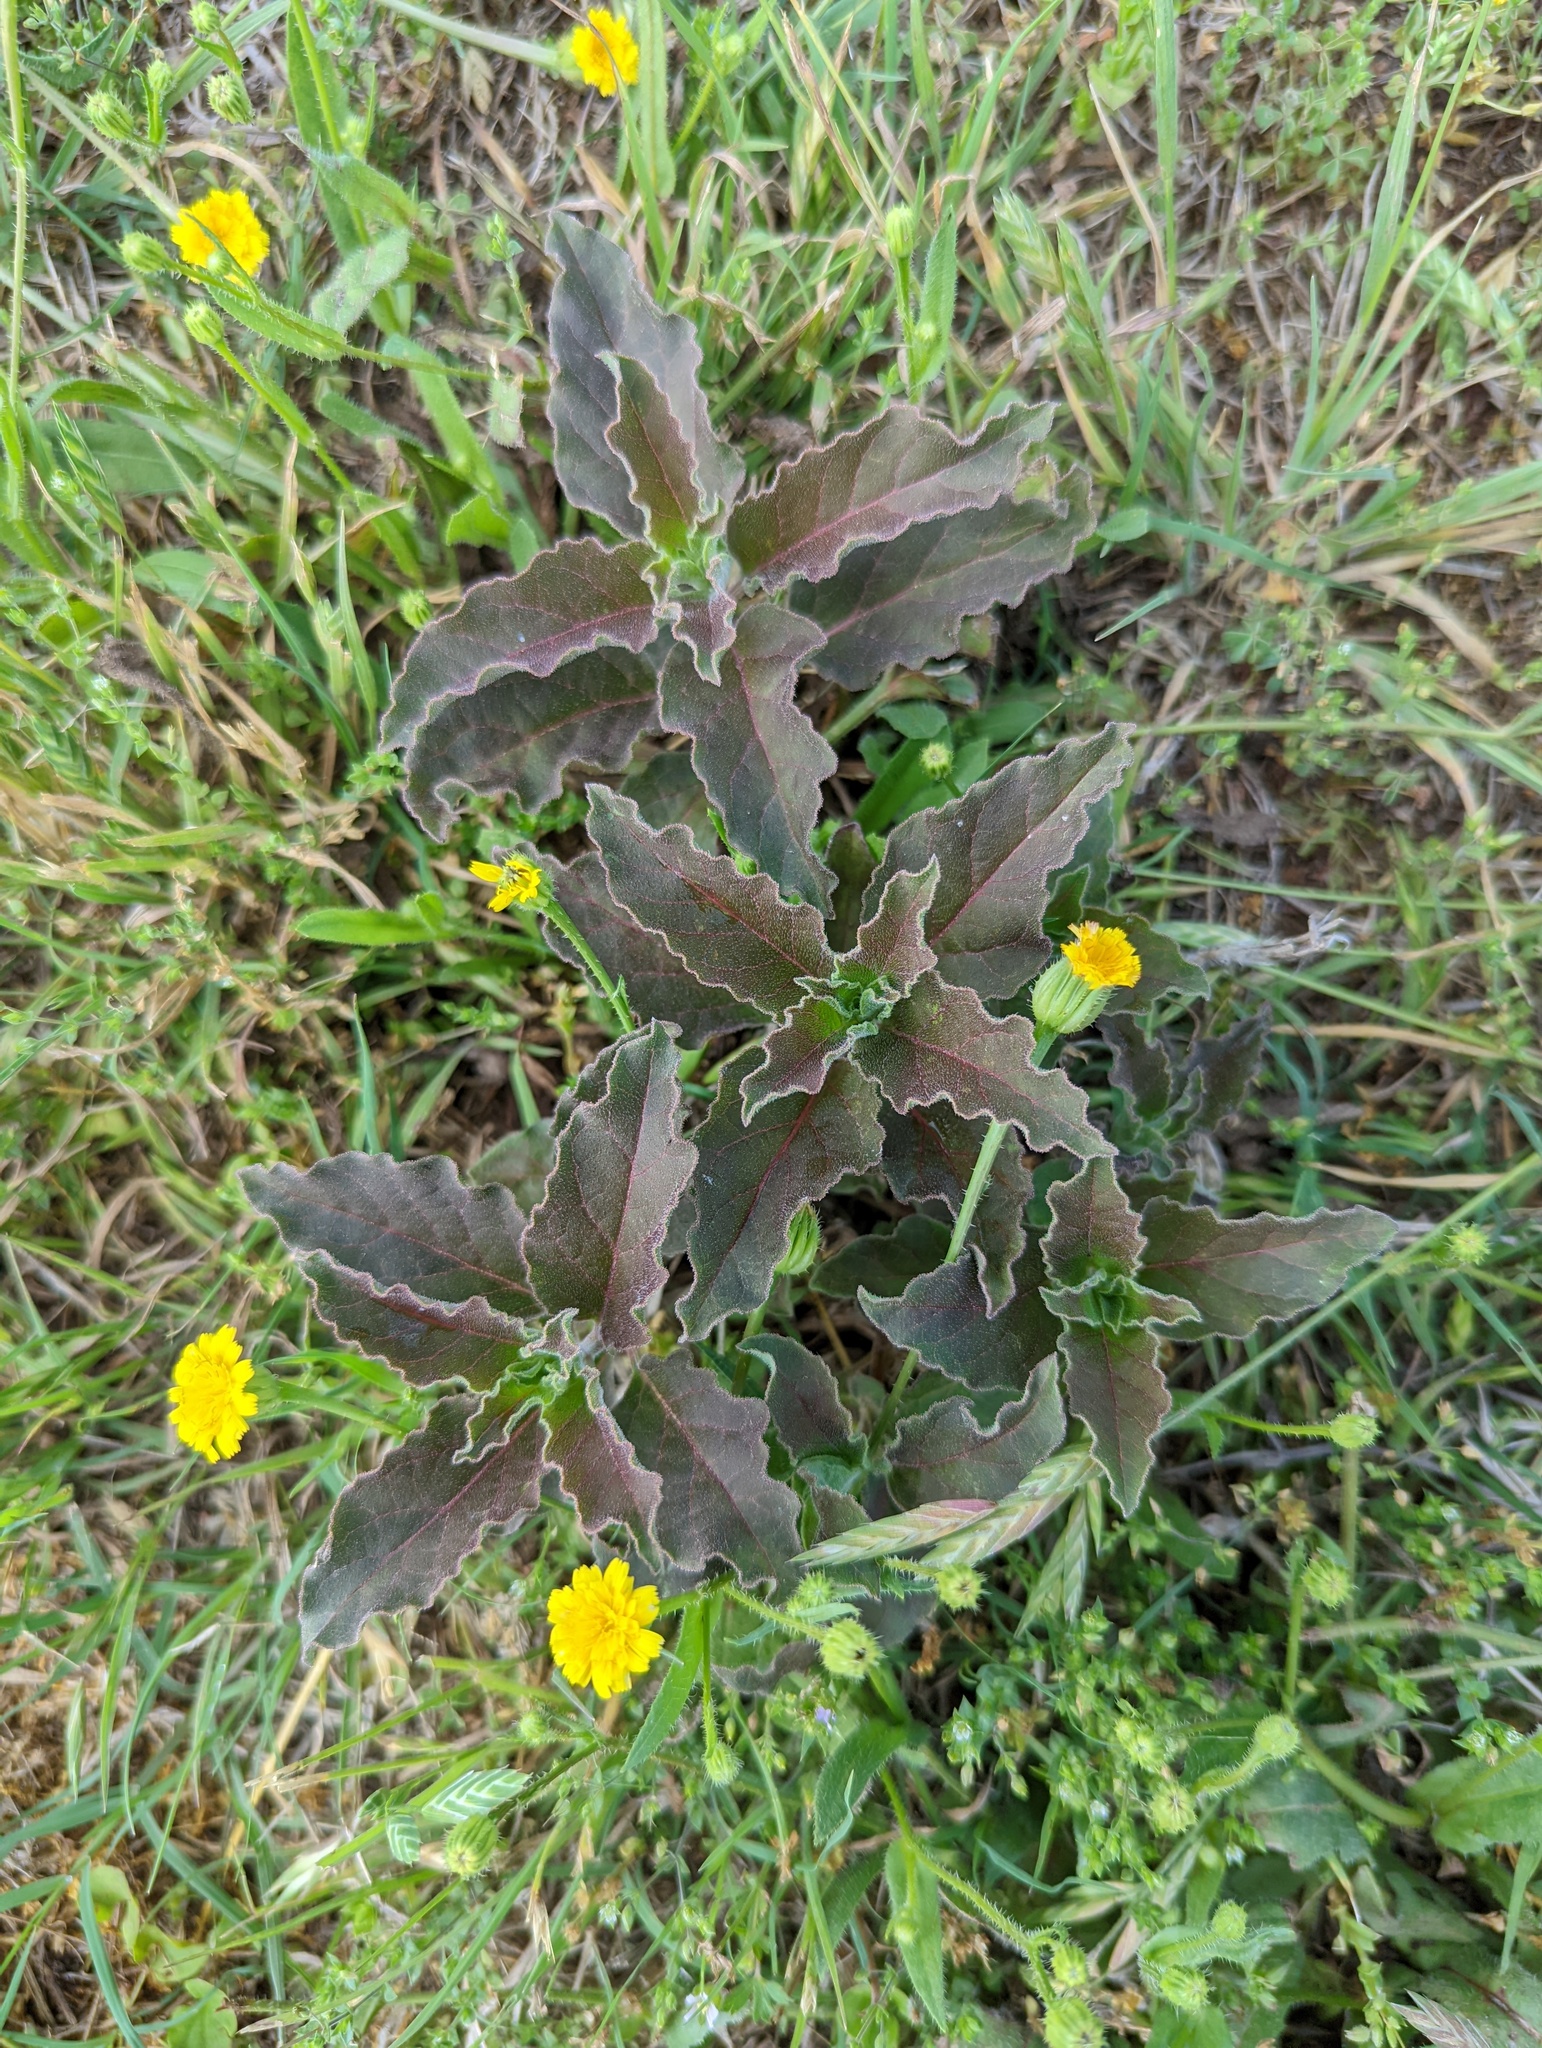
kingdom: Plantae
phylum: Tracheophyta
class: Magnoliopsida
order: Gentianales
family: Apocynaceae
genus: Asclepias
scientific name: Asclepias oenotheroides
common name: Zizotes milkweed
